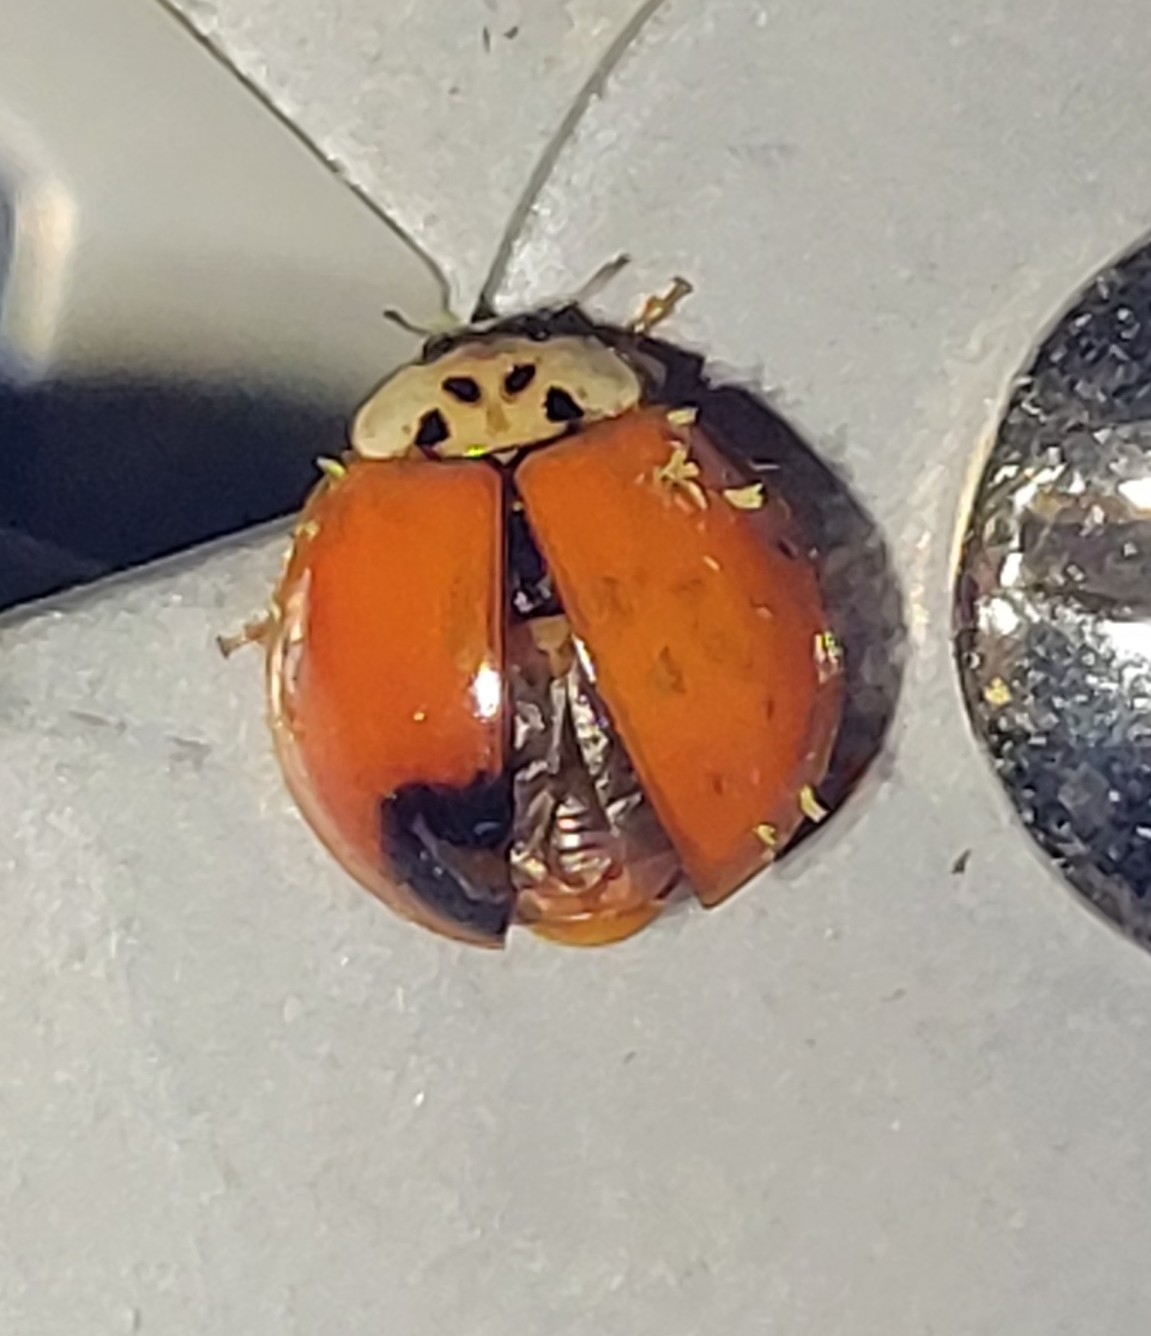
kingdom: Fungi
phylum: Ascomycota
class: Laboulbeniomycetes
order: Laboulbeniales
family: Laboulbeniaceae
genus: Hesperomyces
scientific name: Hesperomyces harmoniae
